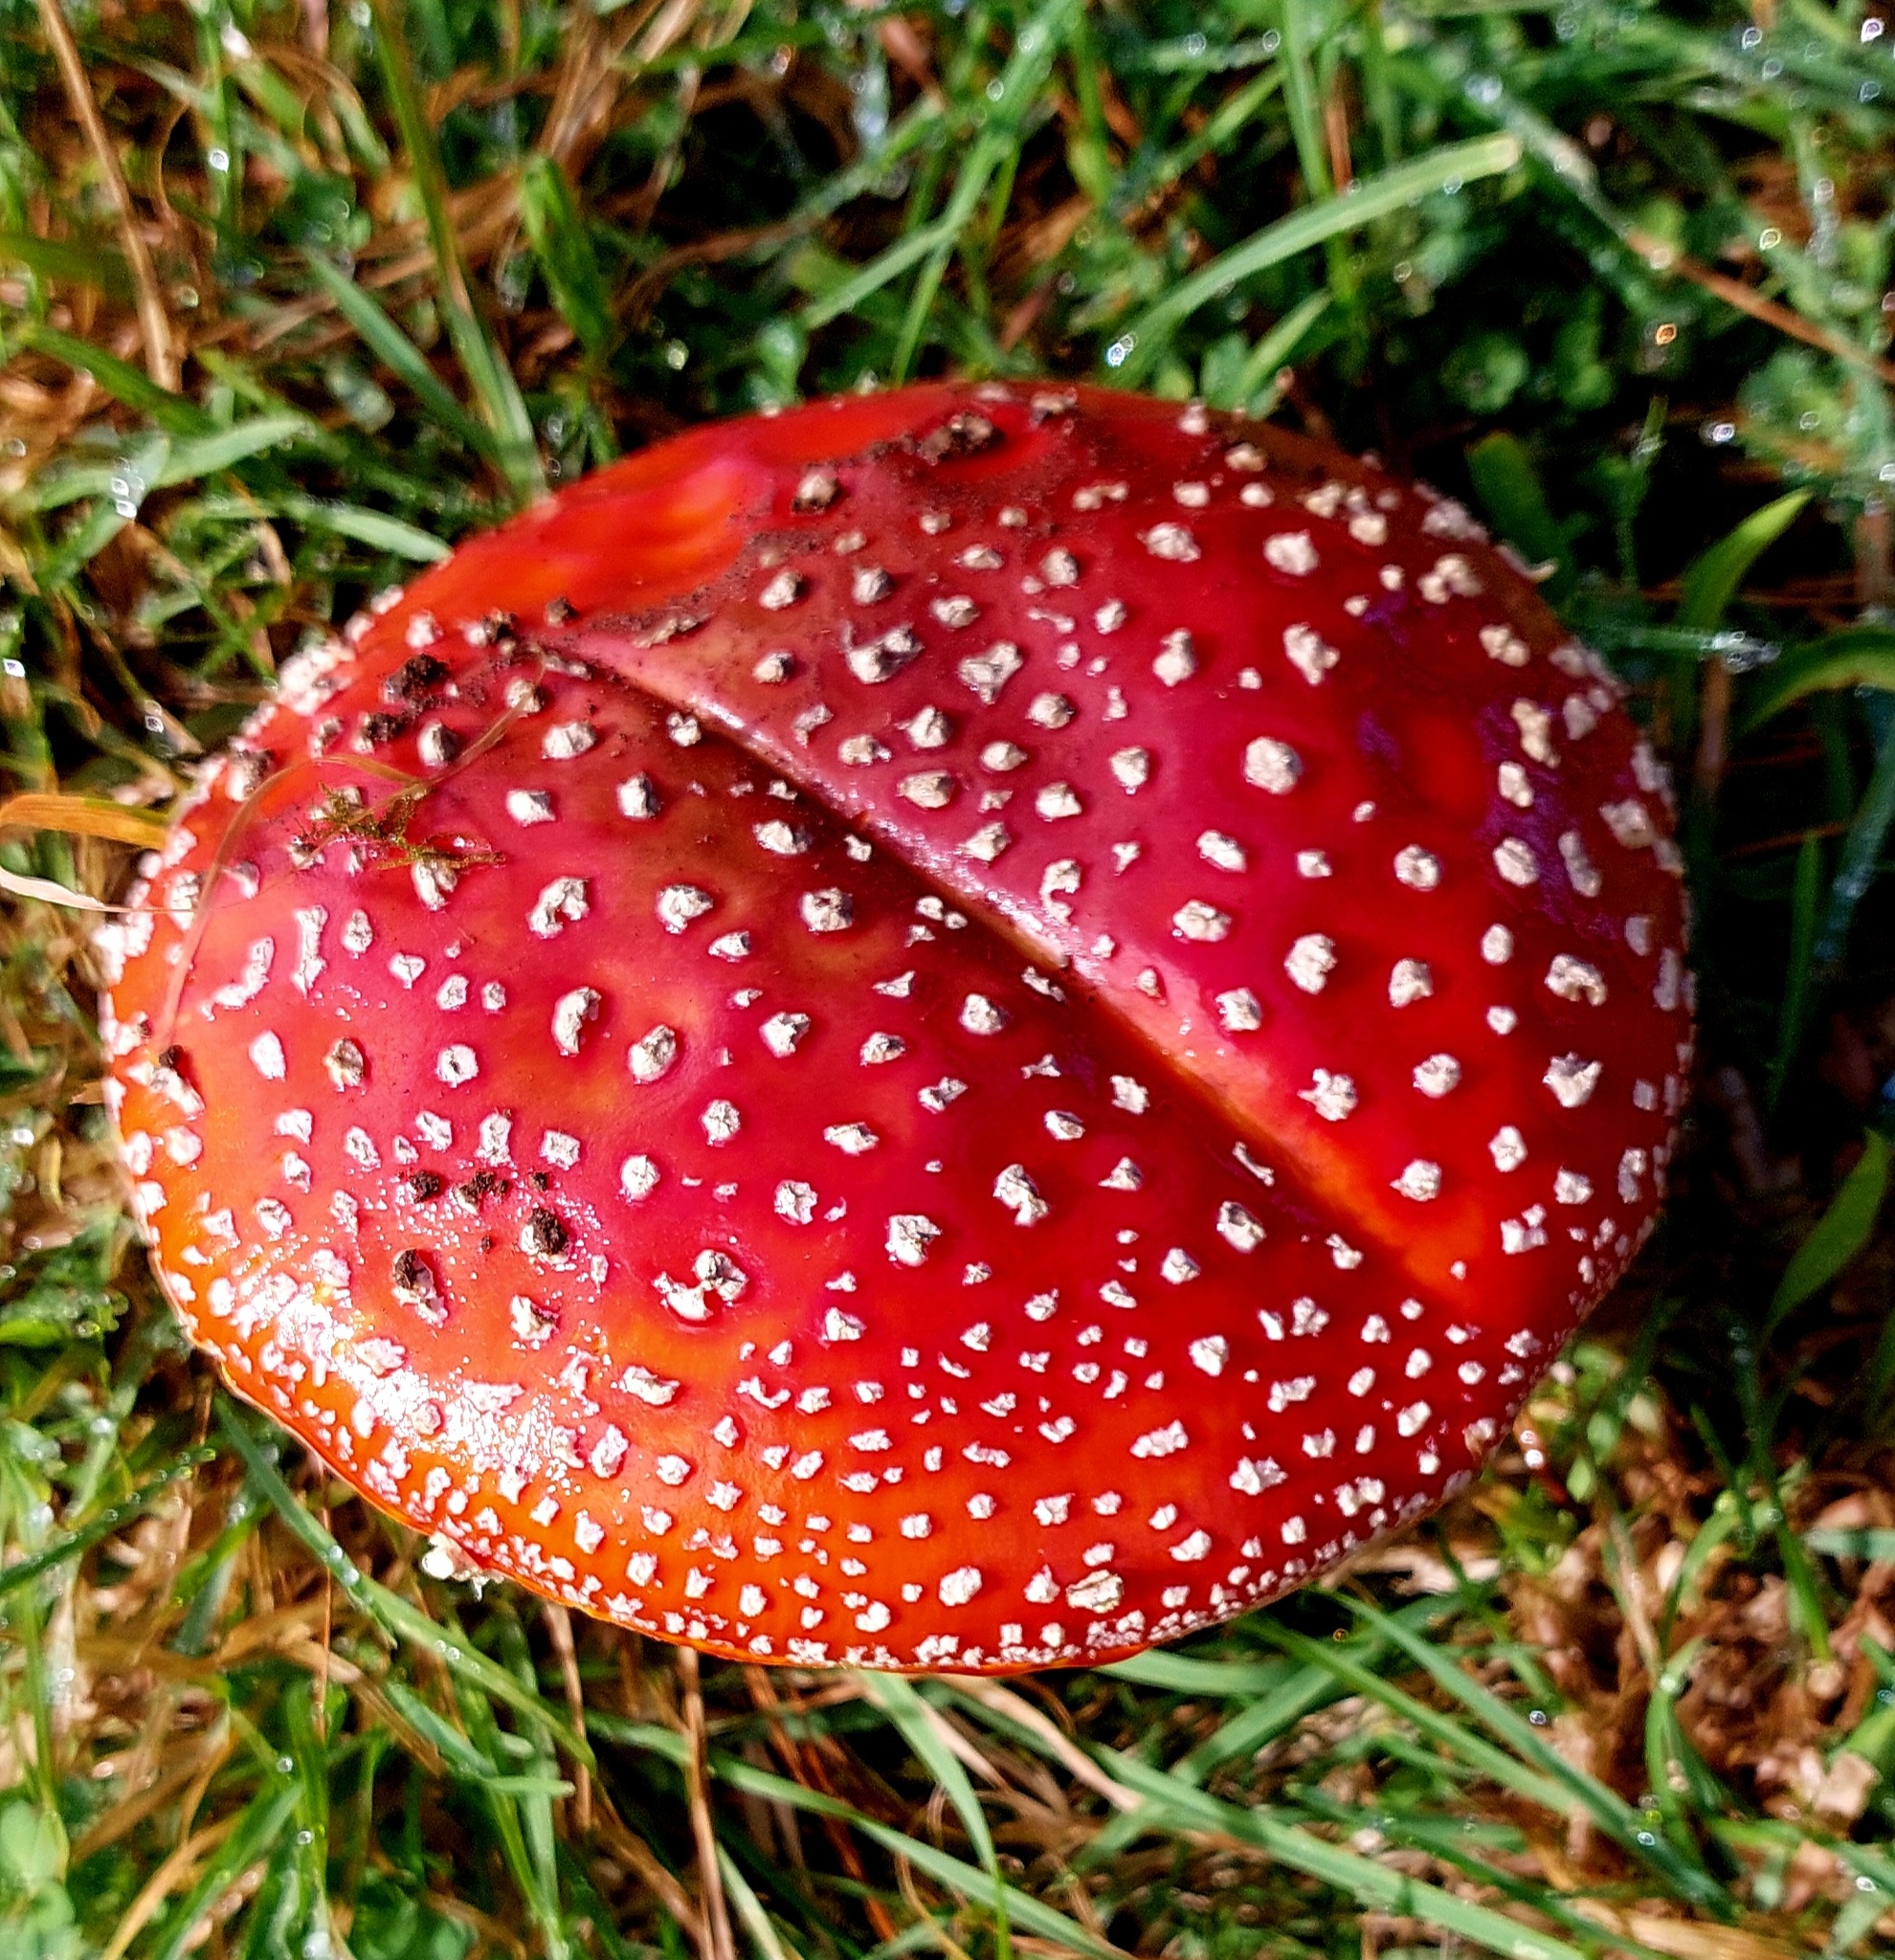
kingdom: Fungi
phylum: Basidiomycota
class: Agaricomycetes
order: Agaricales
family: Amanitaceae
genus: Amanita
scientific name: Amanita muscaria
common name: Fly agaric
